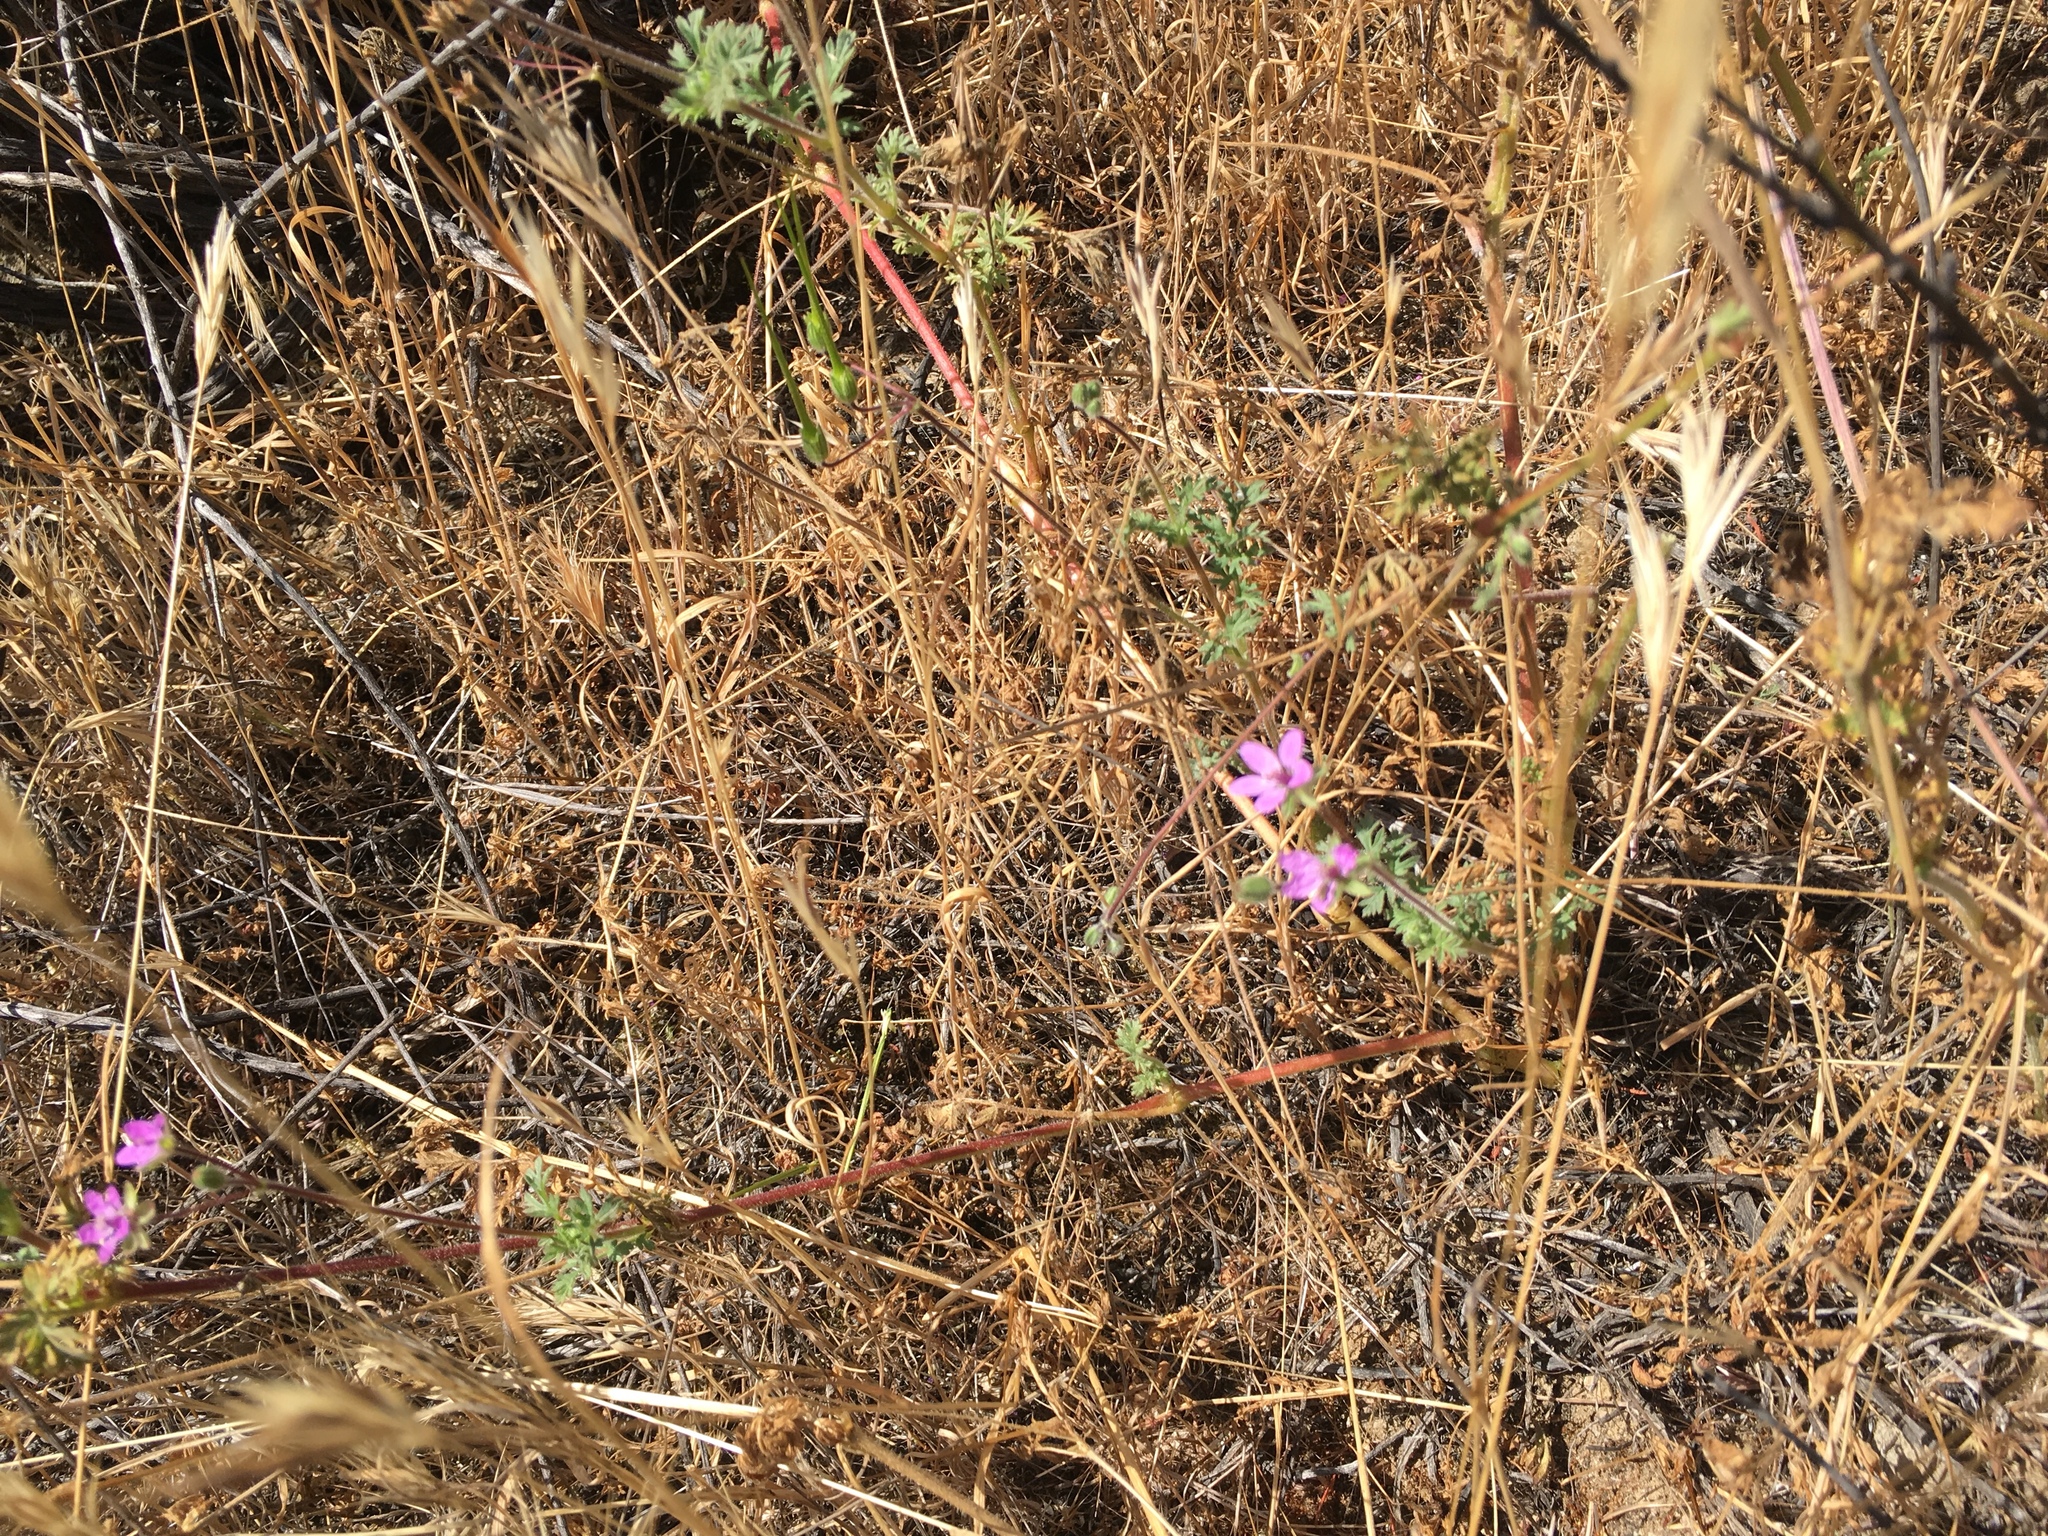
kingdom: Plantae
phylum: Tracheophyta
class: Magnoliopsida
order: Geraniales
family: Geraniaceae
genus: Erodium
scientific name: Erodium cicutarium
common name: Common stork's-bill
